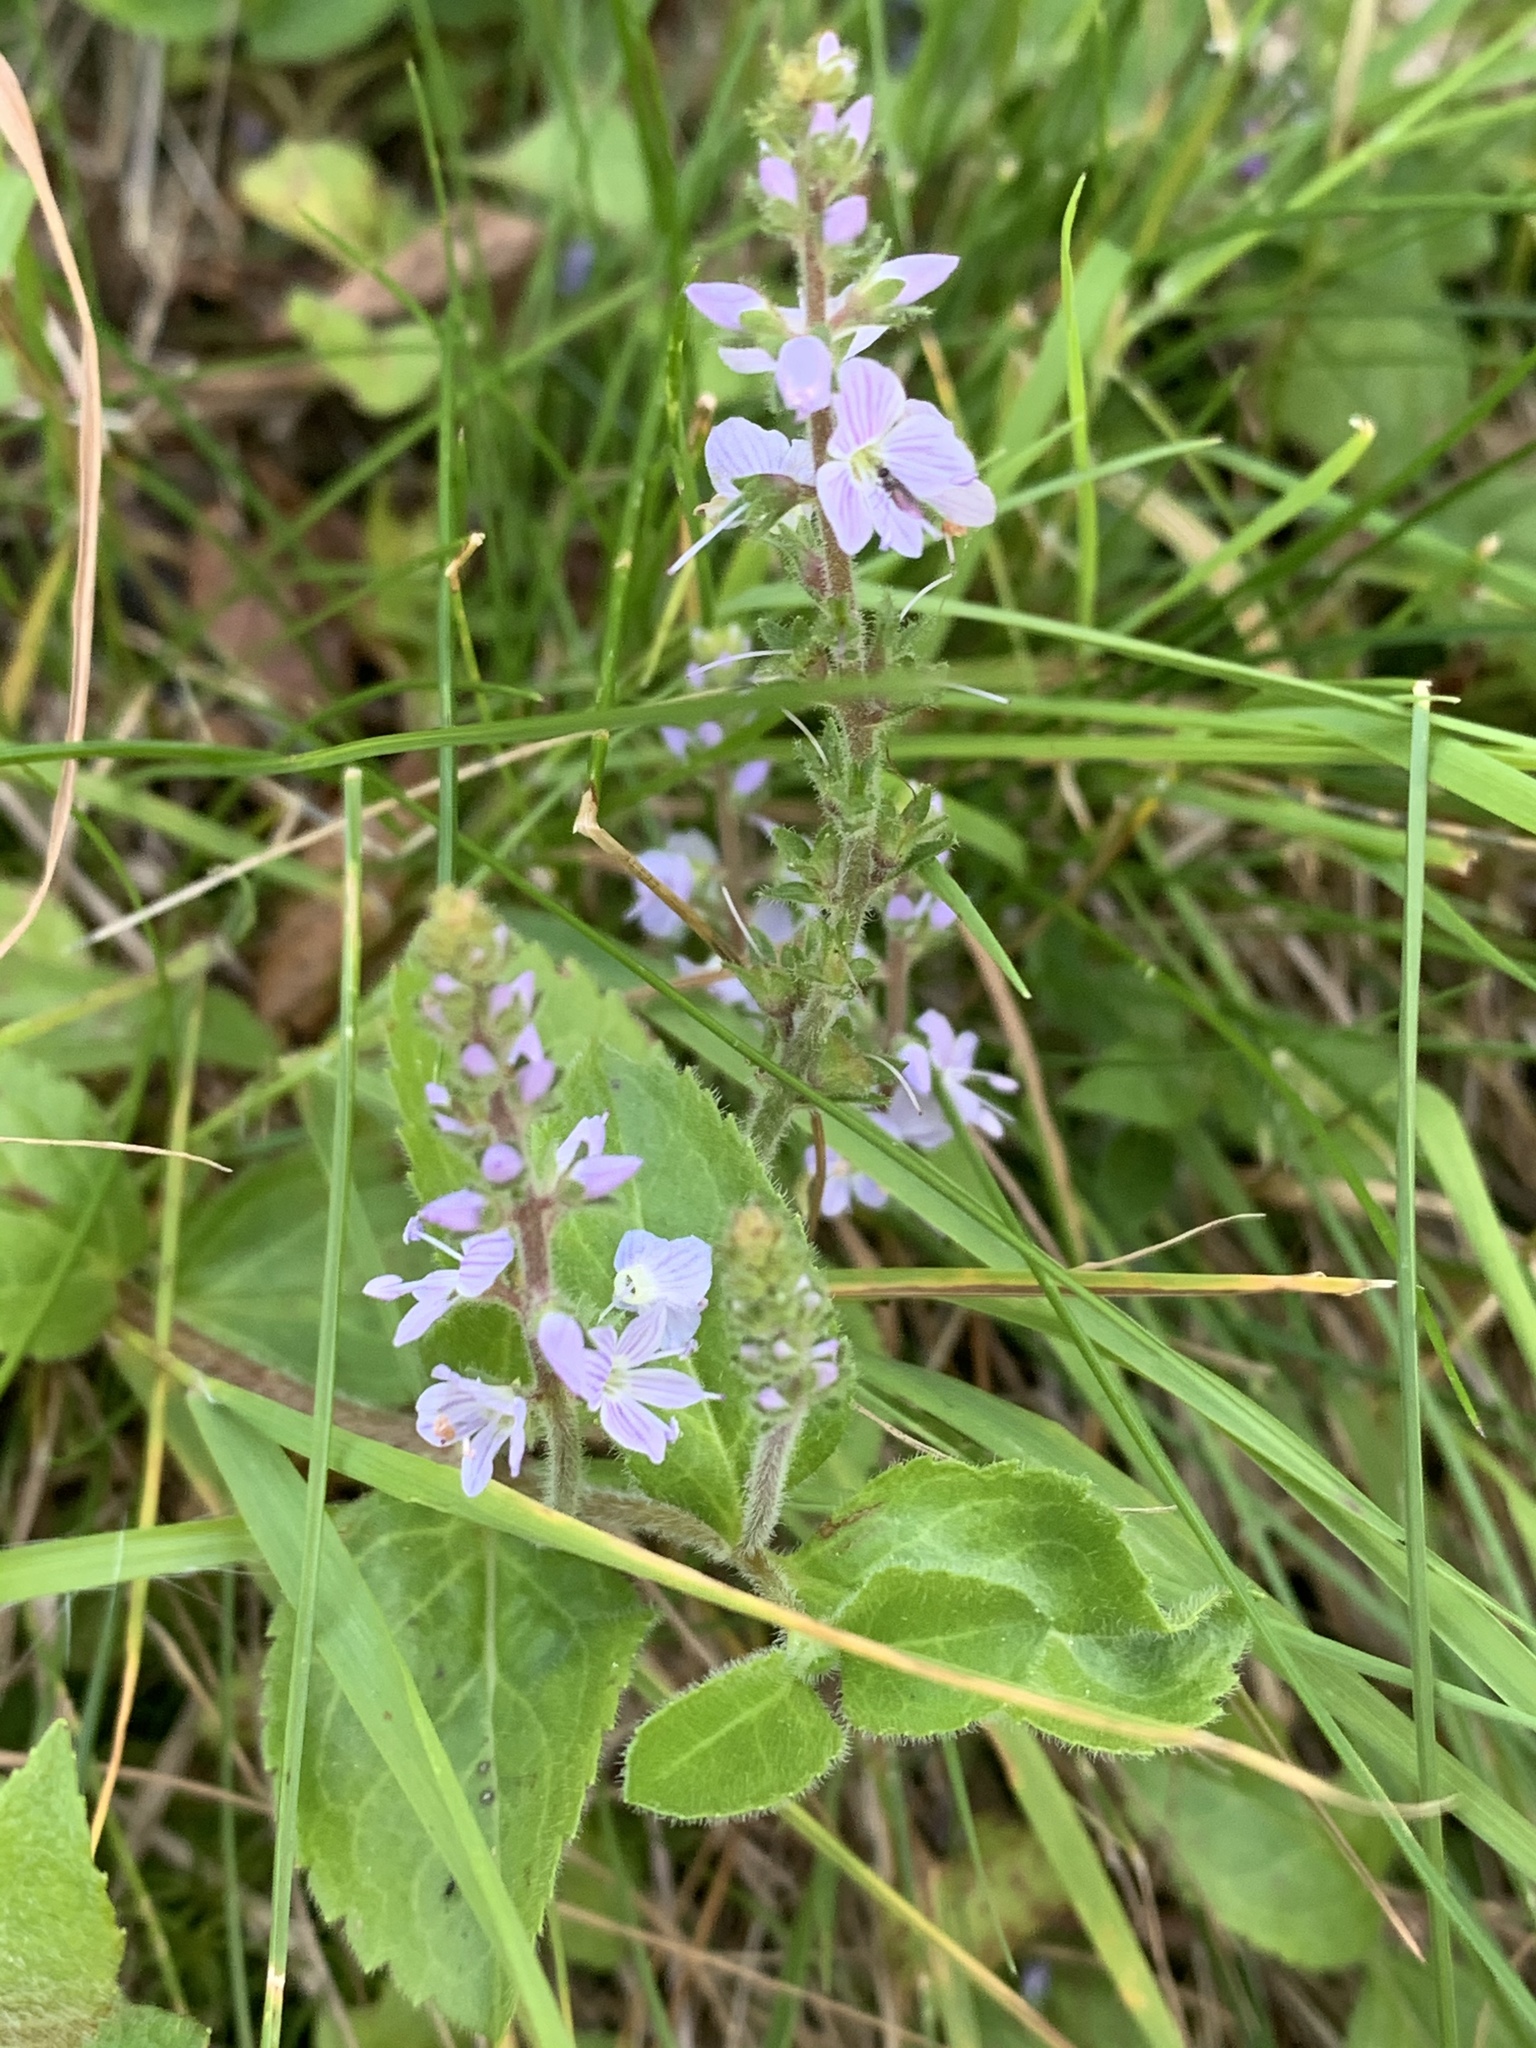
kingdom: Plantae
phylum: Tracheophyta
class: Magnoliopsida
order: Lamiales
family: Plantaginaceae
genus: Veronica
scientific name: Veronica officinalis
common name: Common speedwell
